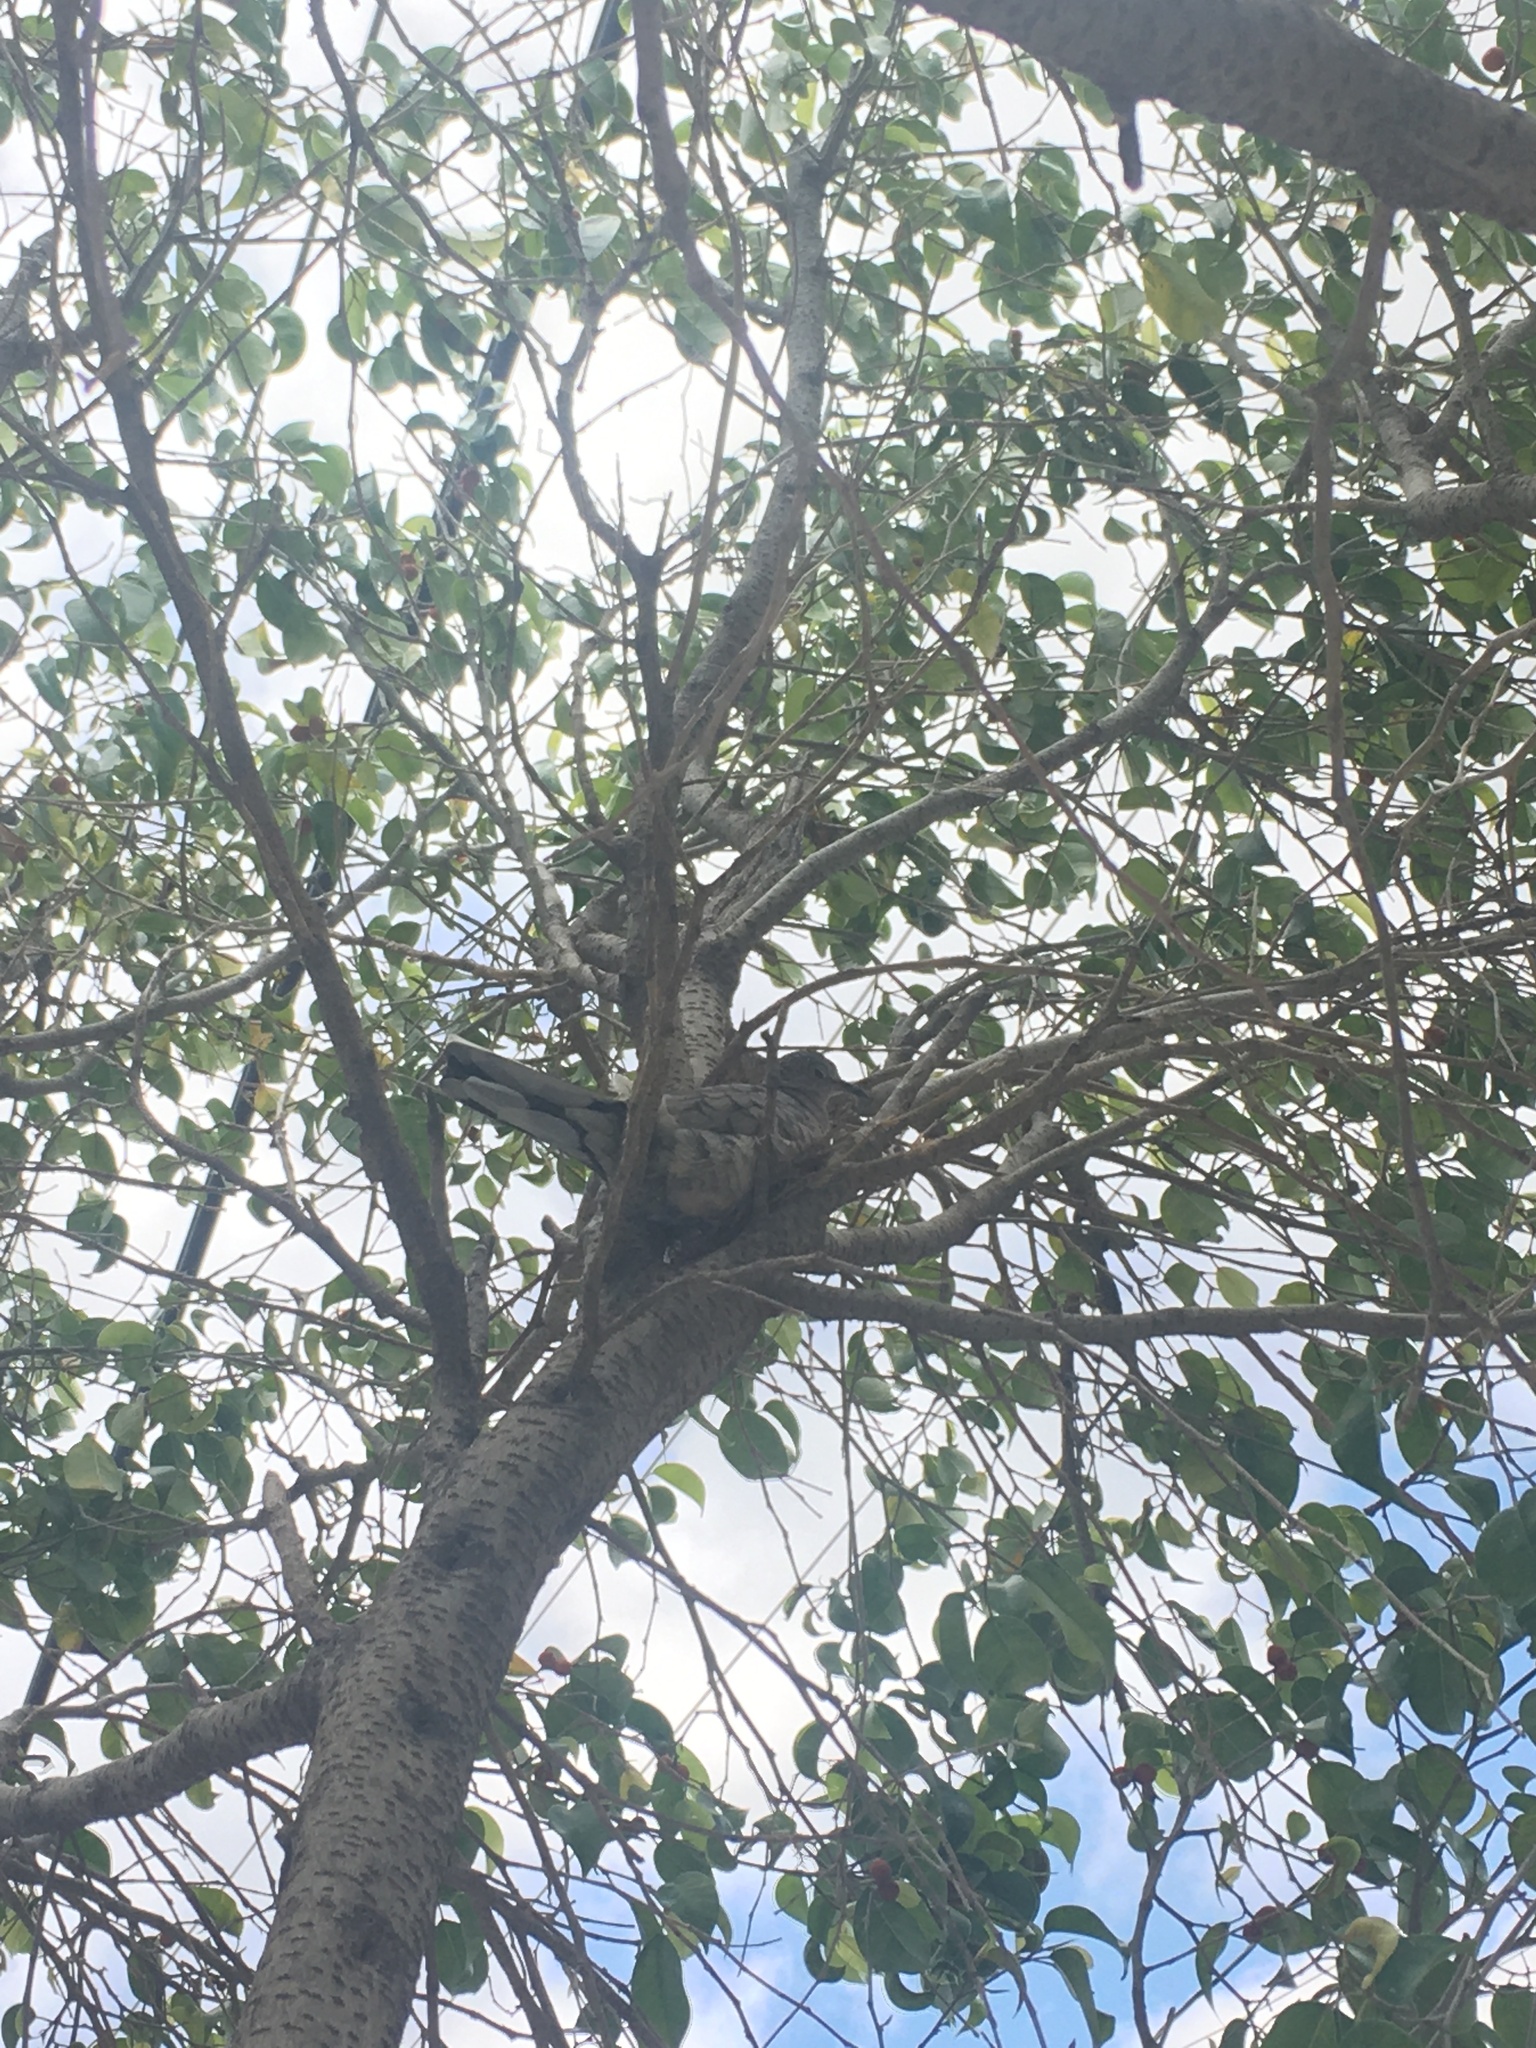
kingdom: Animalia
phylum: Chordata
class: Aves
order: Columbiformes
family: Columbidae
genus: Columbina
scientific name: Columbina inca
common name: Inca dove
